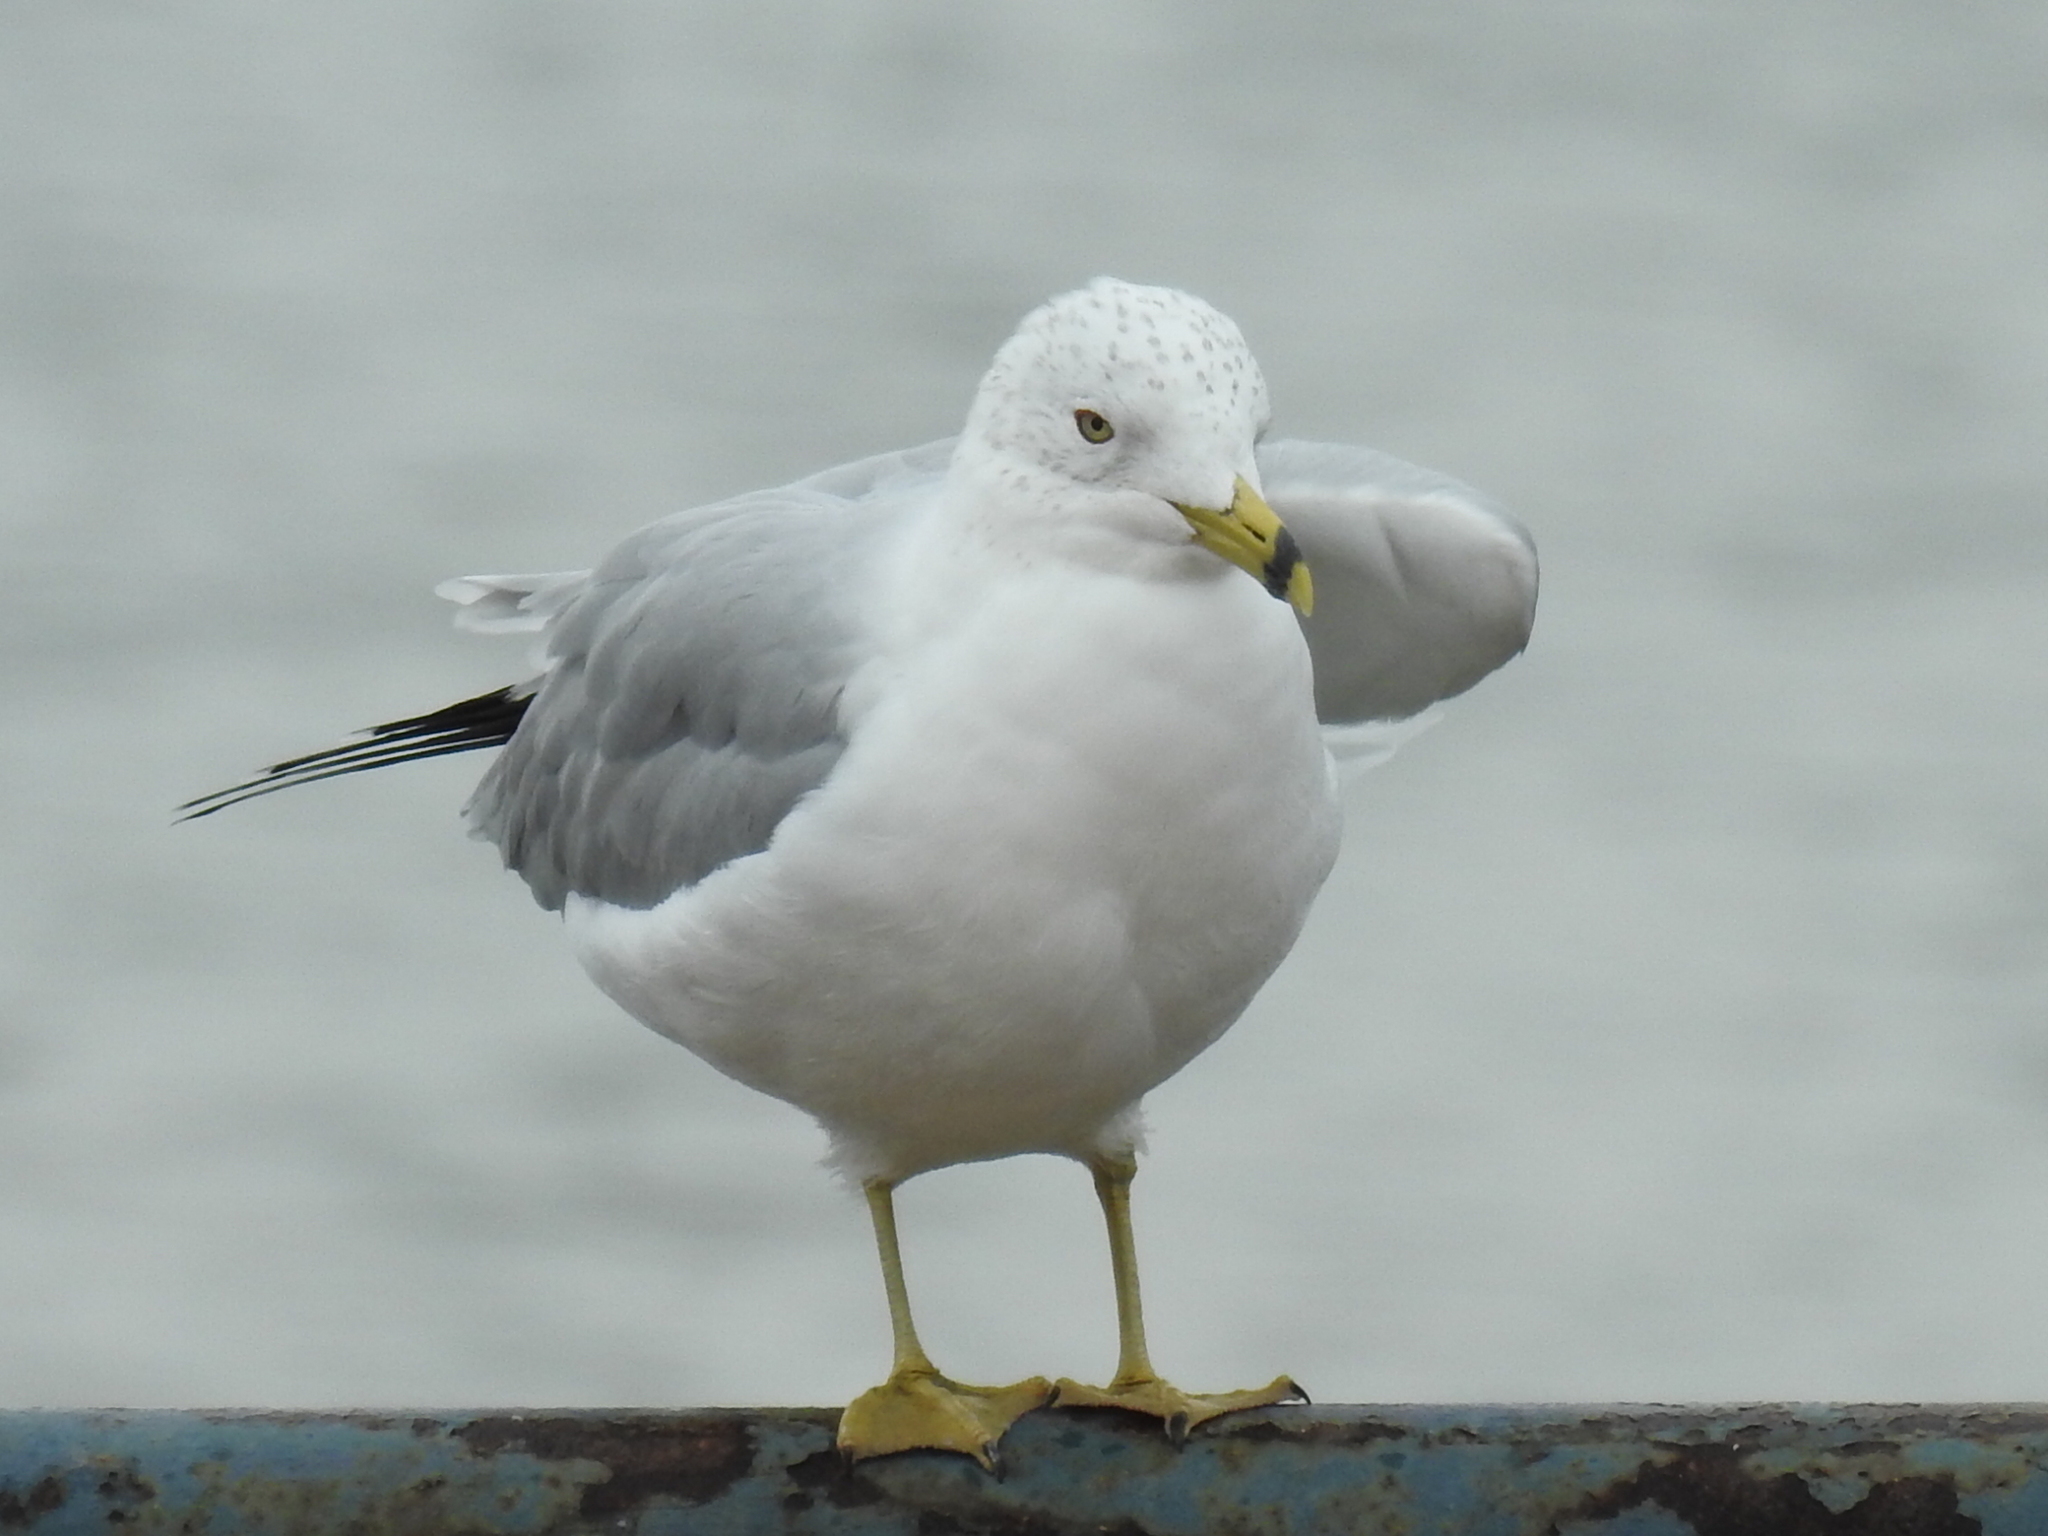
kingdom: Animalia
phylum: Chordata
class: Aves
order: Charadriiformes
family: Laridae
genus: Larus
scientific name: Larus delawarensis
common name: Ring-billed gull
